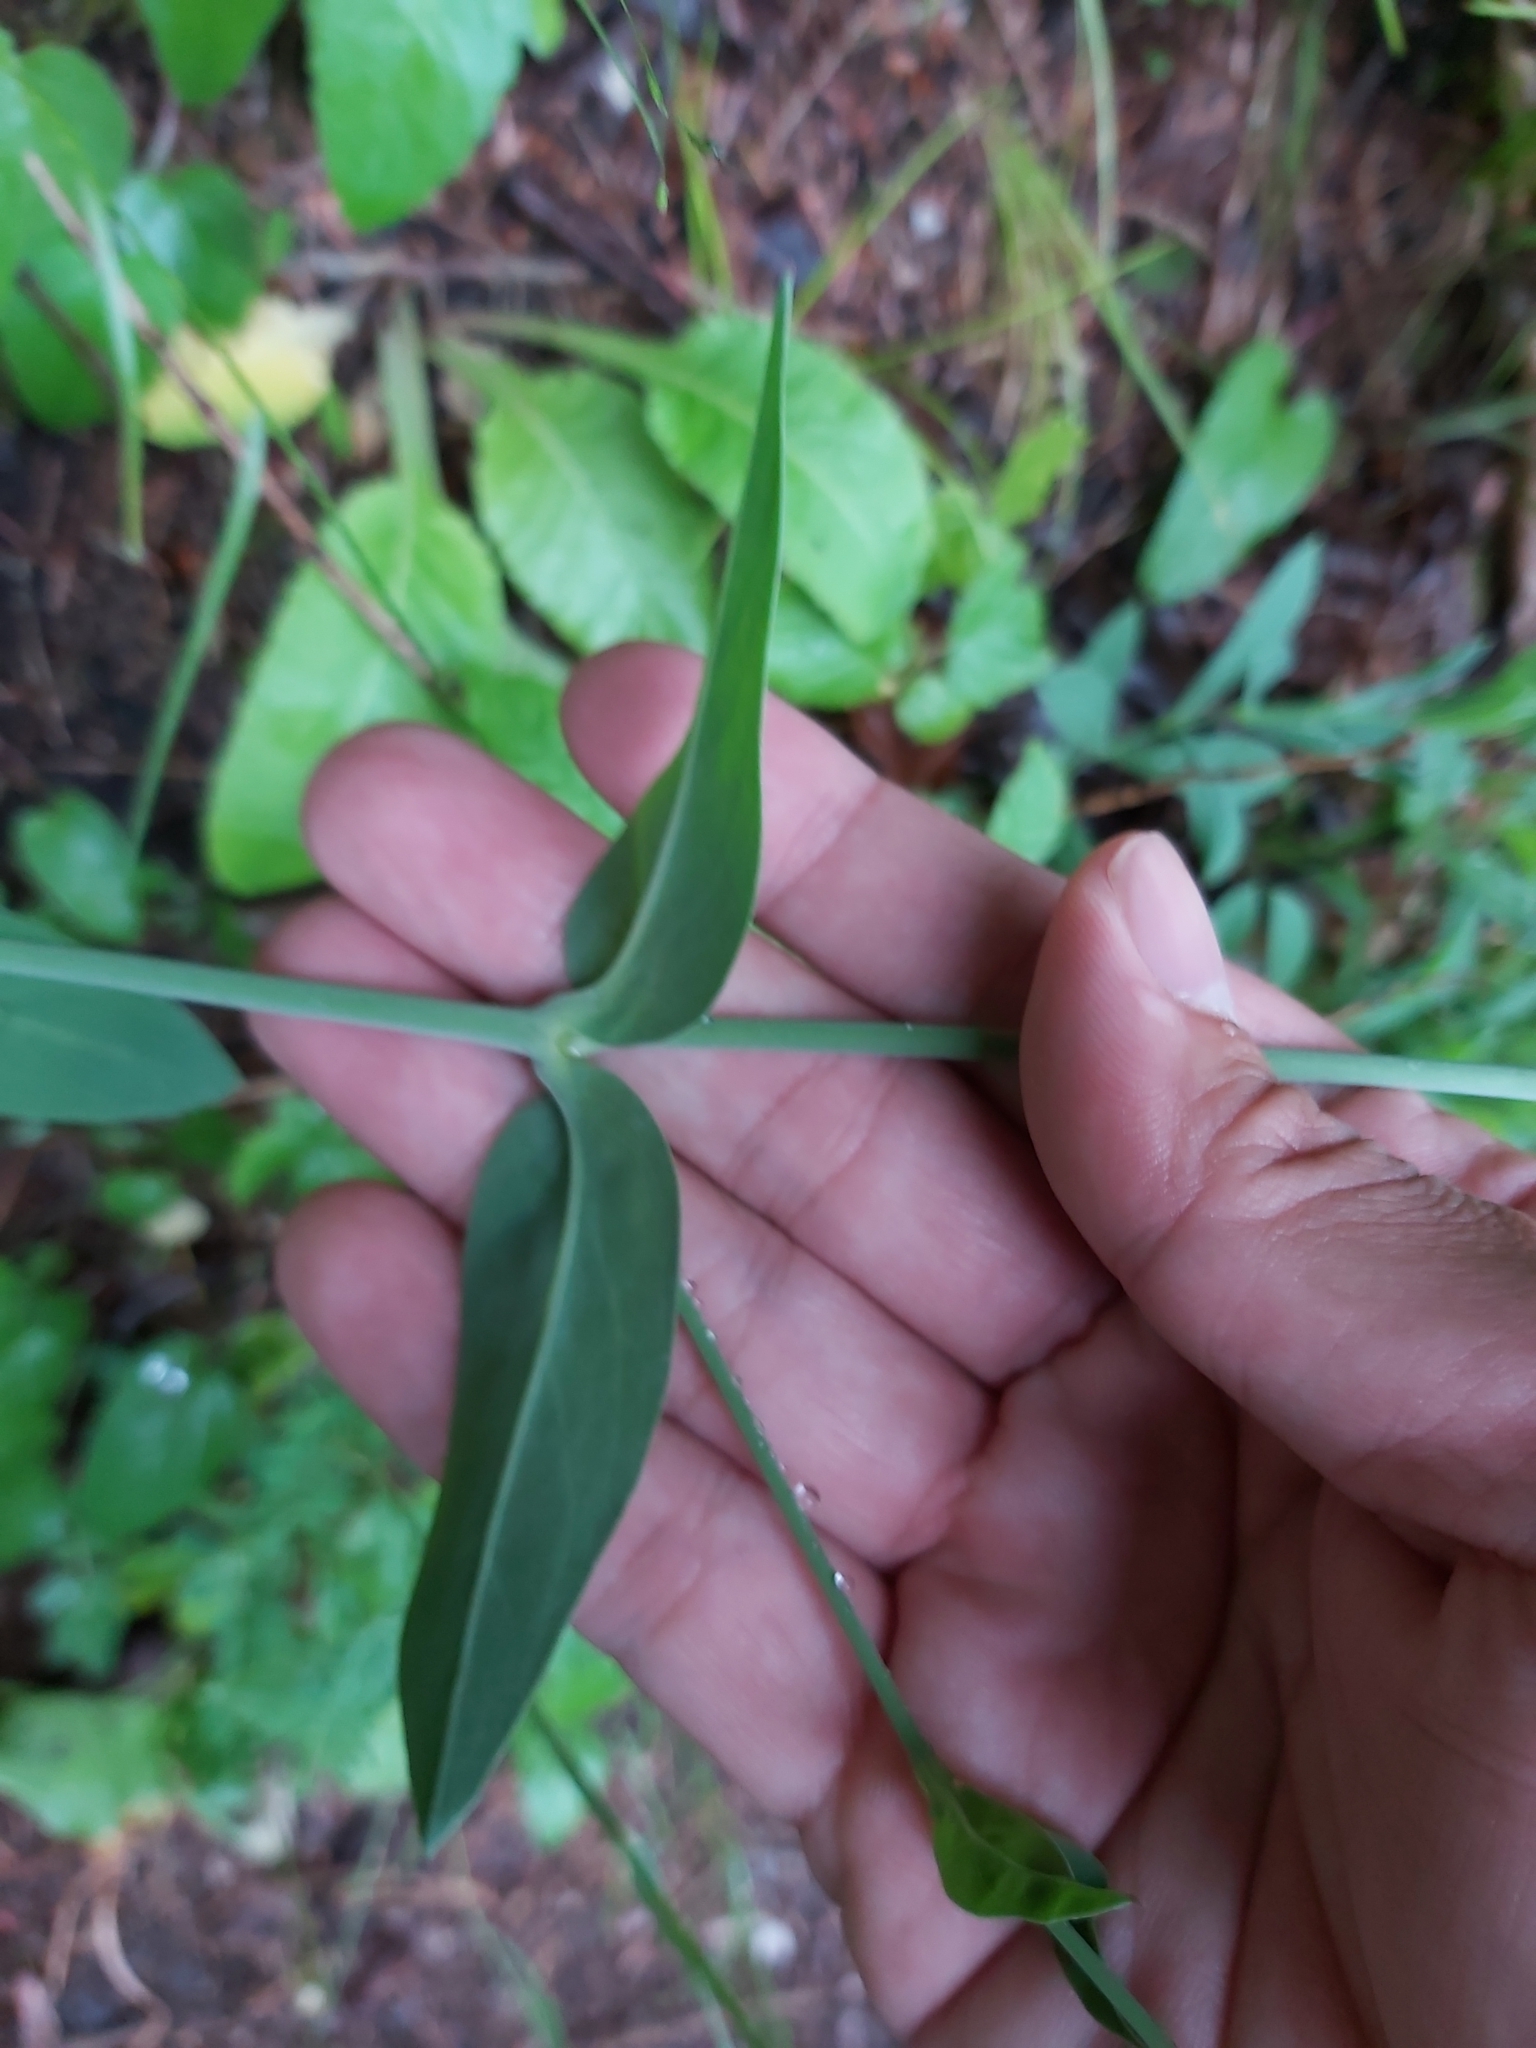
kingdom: Plantae
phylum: Tracheophyta
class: Magnoliopsida
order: Caryophyllales
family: Caryophyllaceae
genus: Silene
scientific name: Silene vulgaris
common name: Bladder campion
